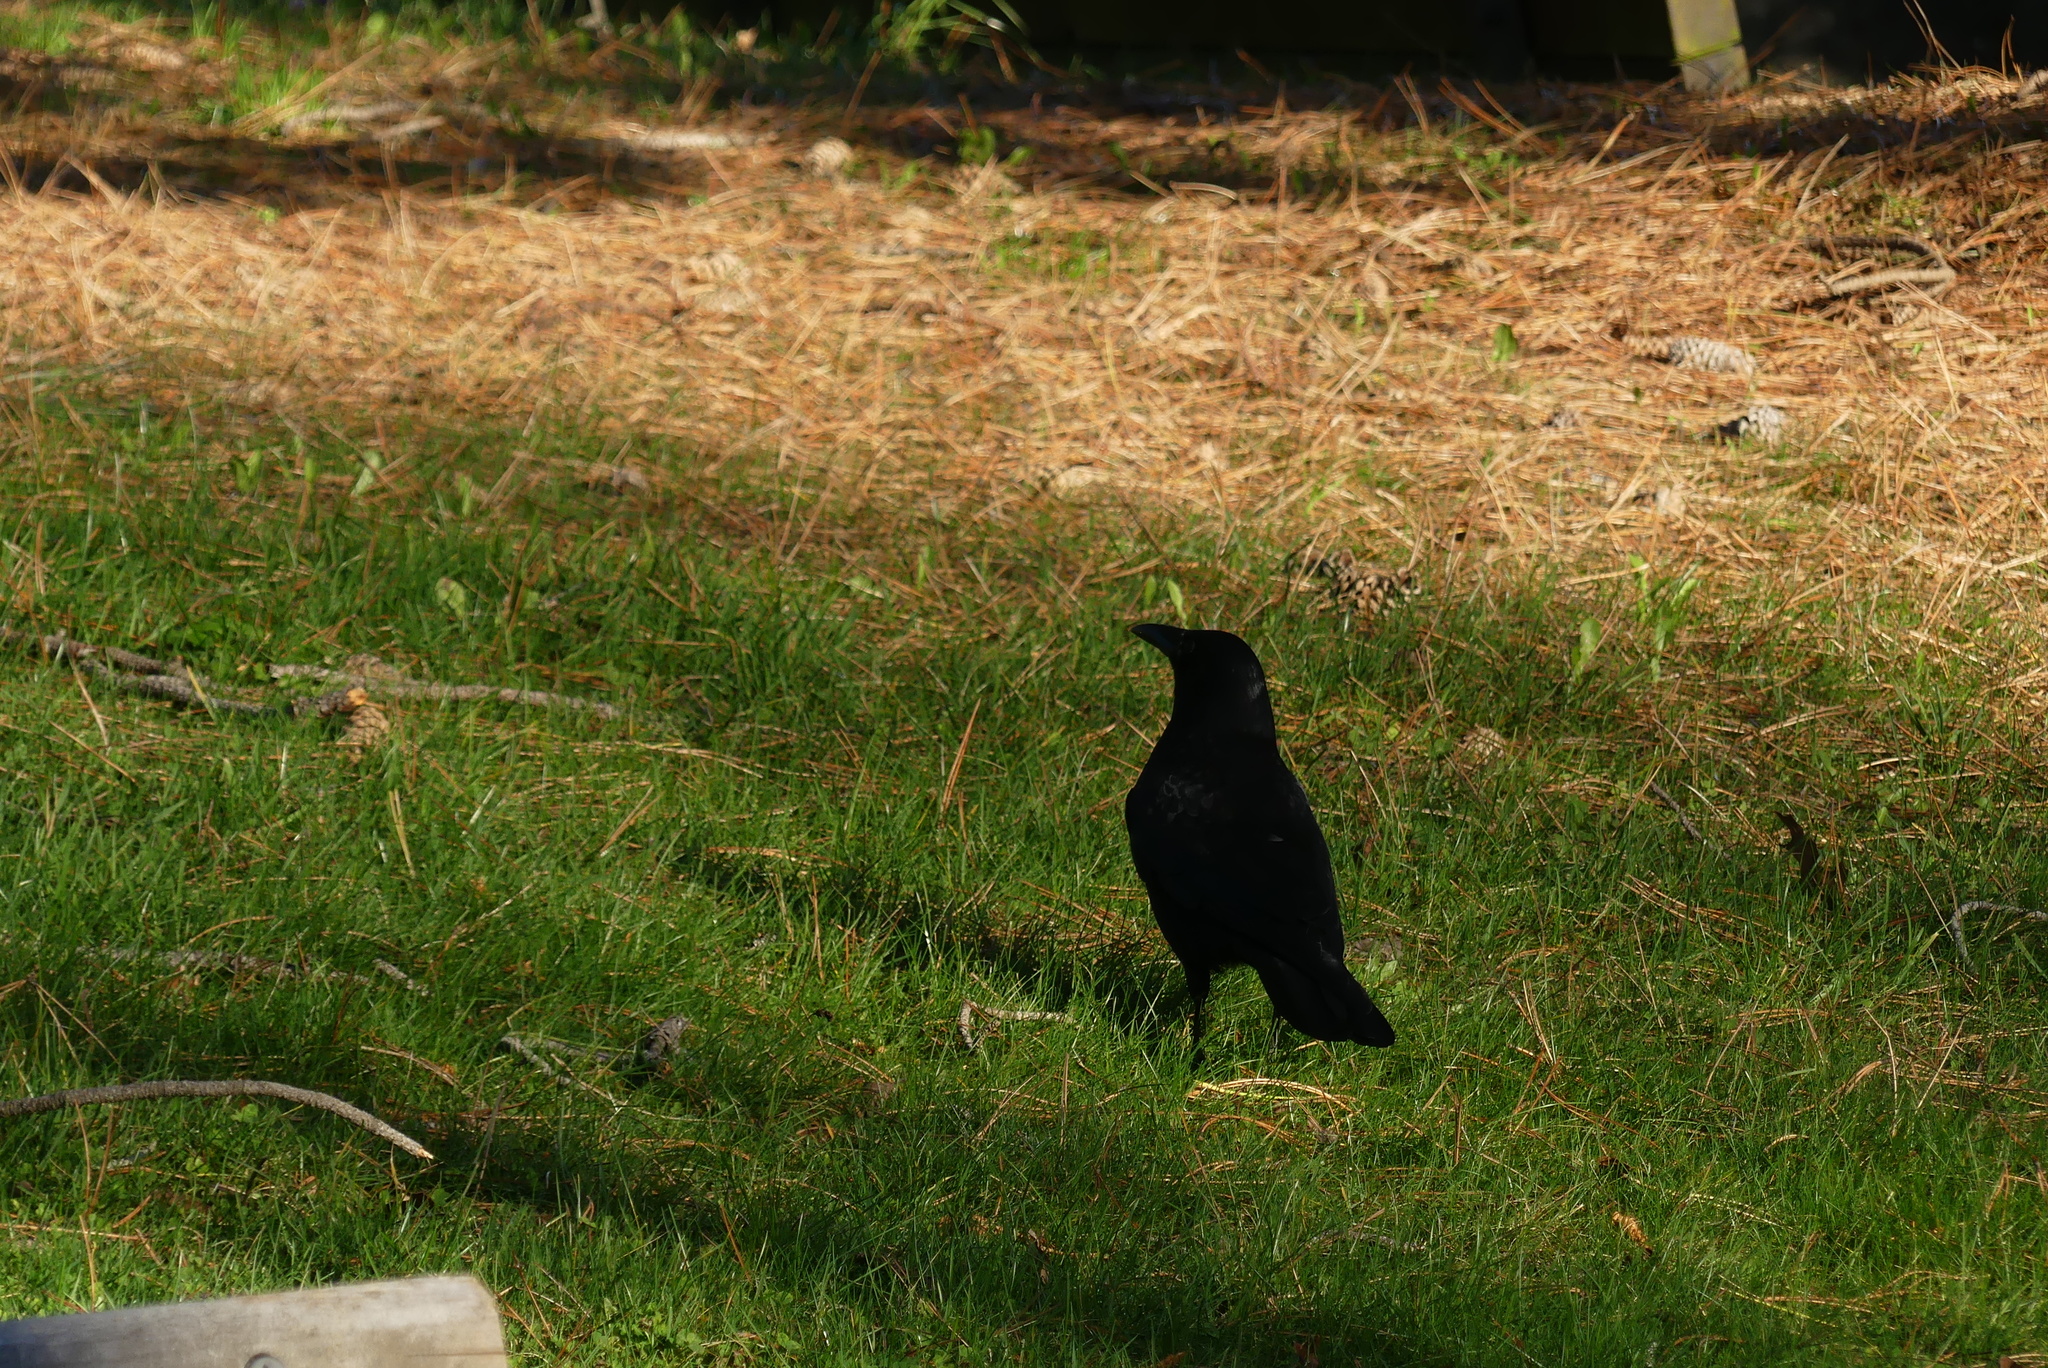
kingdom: Animalia
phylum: Chordata
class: Aves
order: Passeriformes
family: Corvidae
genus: Corvus
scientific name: Corvus brachyrhynchos
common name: American crow
